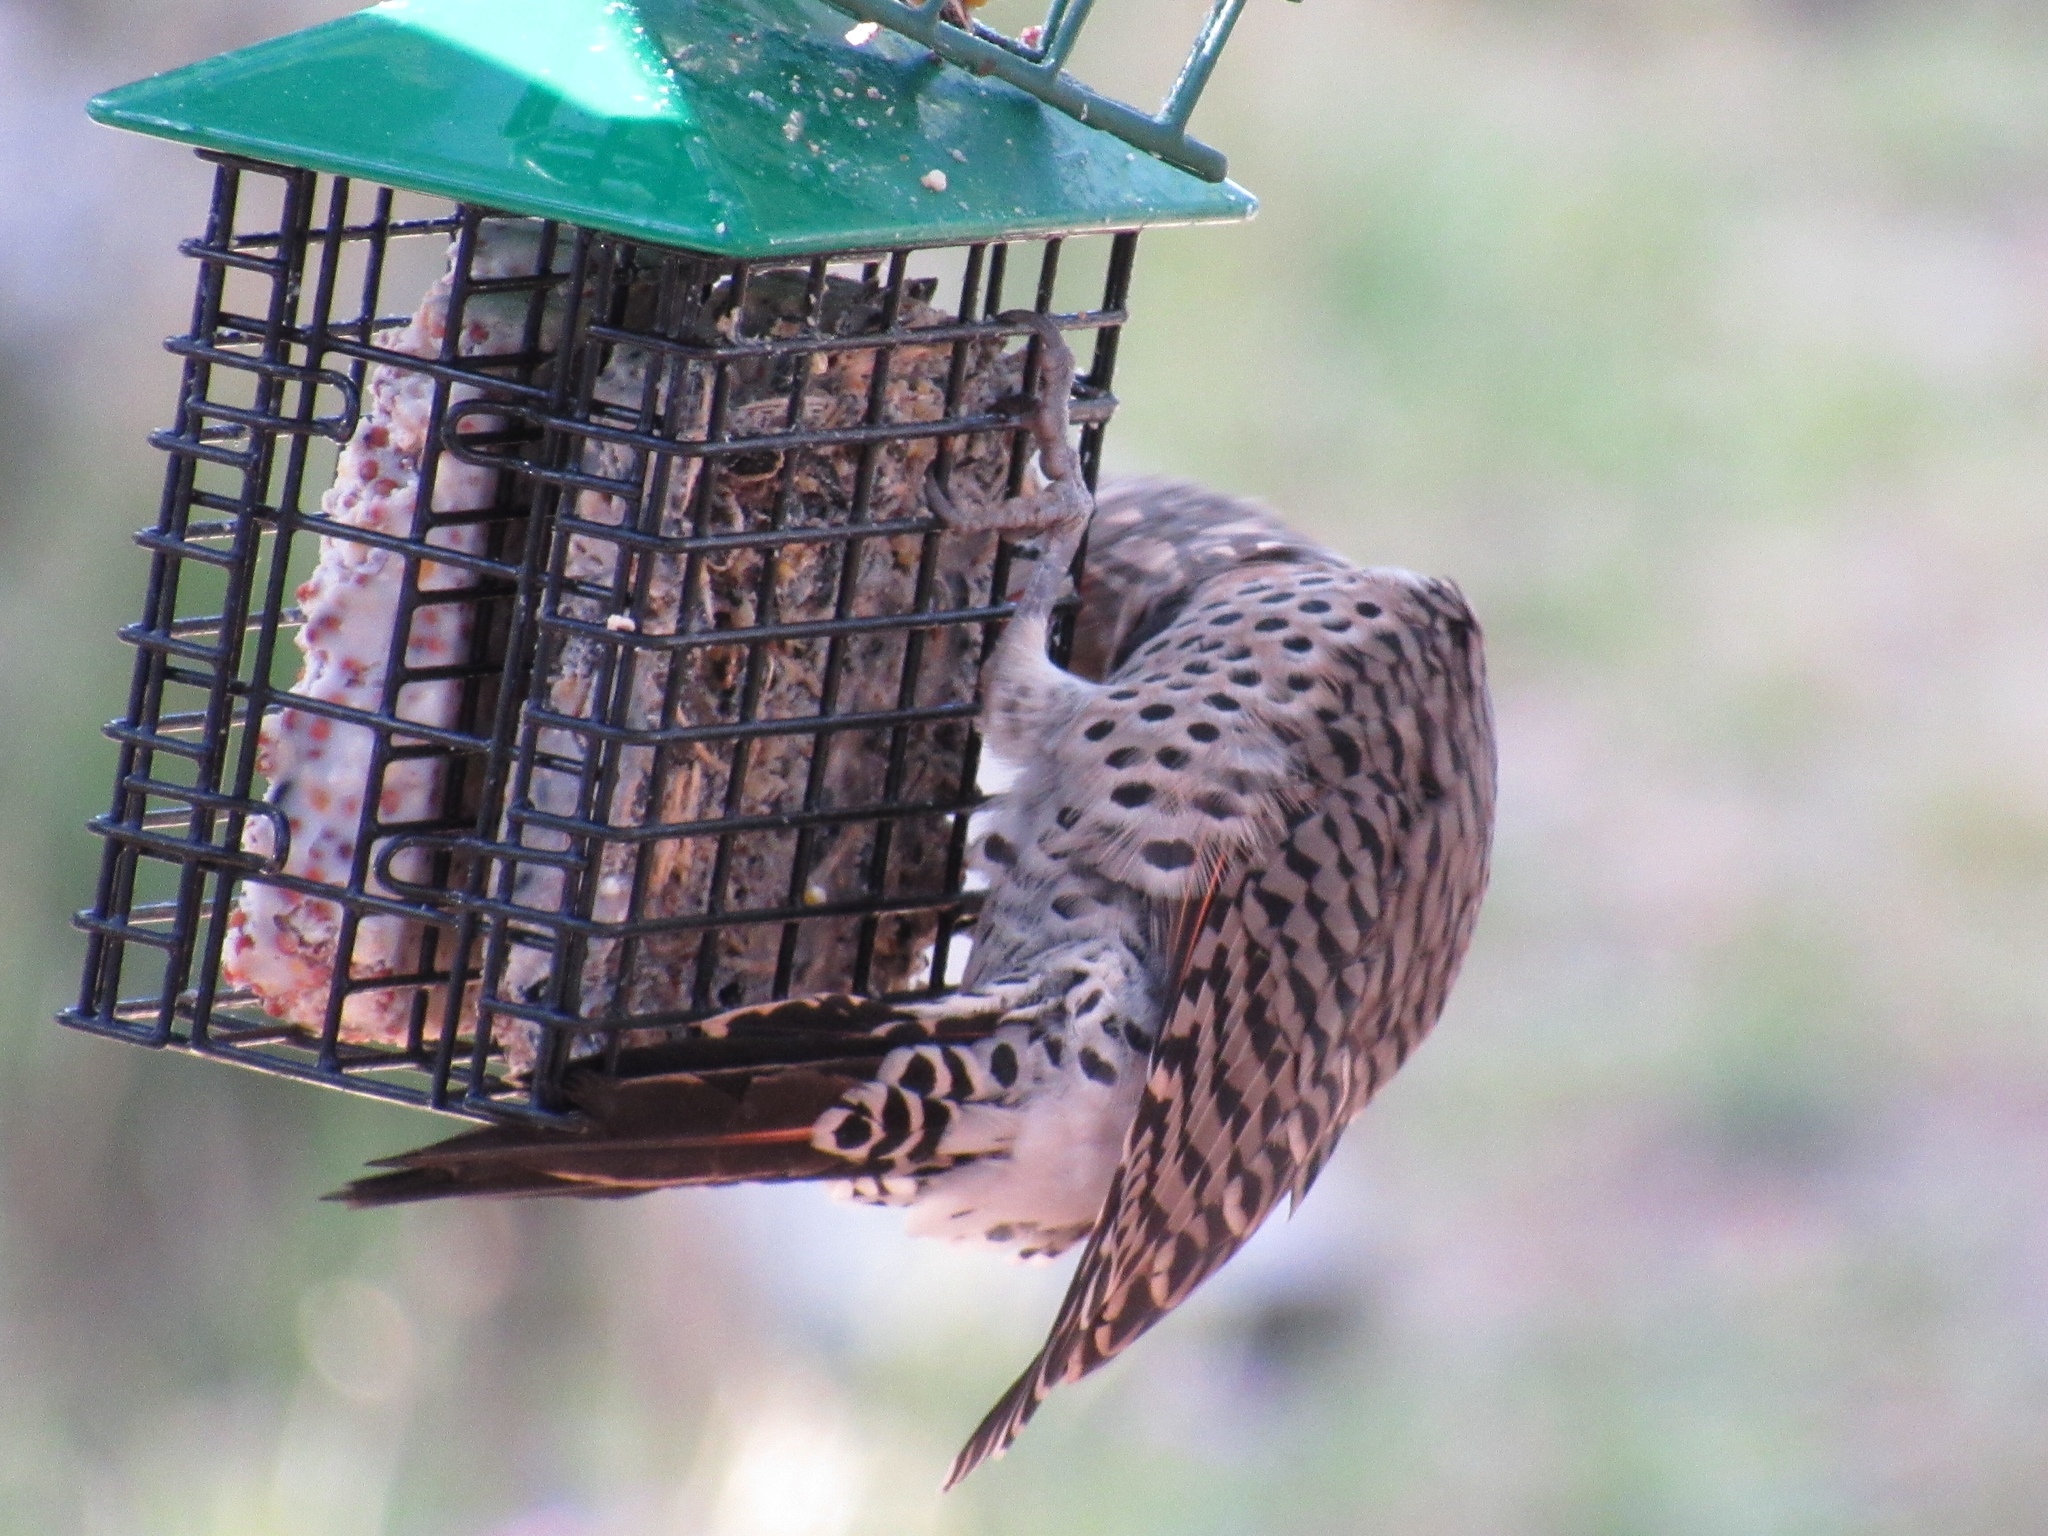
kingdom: Animalia
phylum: Chordata
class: Aves
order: Piciformes
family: Picidae
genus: Colaptes
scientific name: Colaptes auratus
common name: Northern flicker
